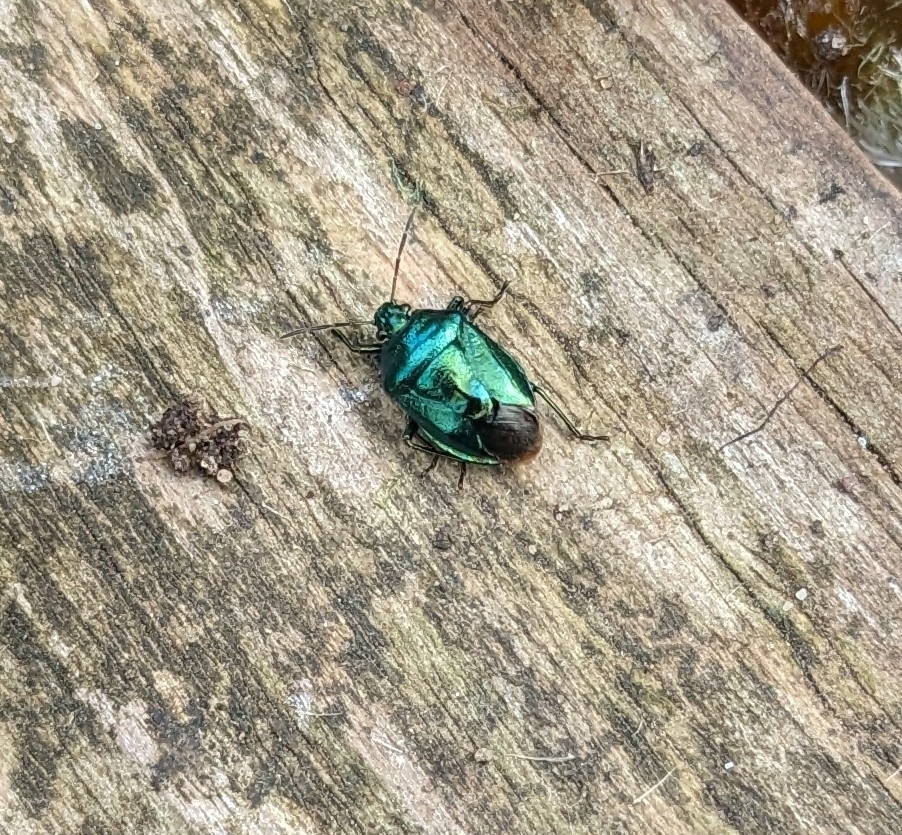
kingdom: Animalia
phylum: Arthropoda
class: Insecta
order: Hemiptera
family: Pentatomidae
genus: Zicrona
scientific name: Zicrona caerulea
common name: Blue shieldbug
